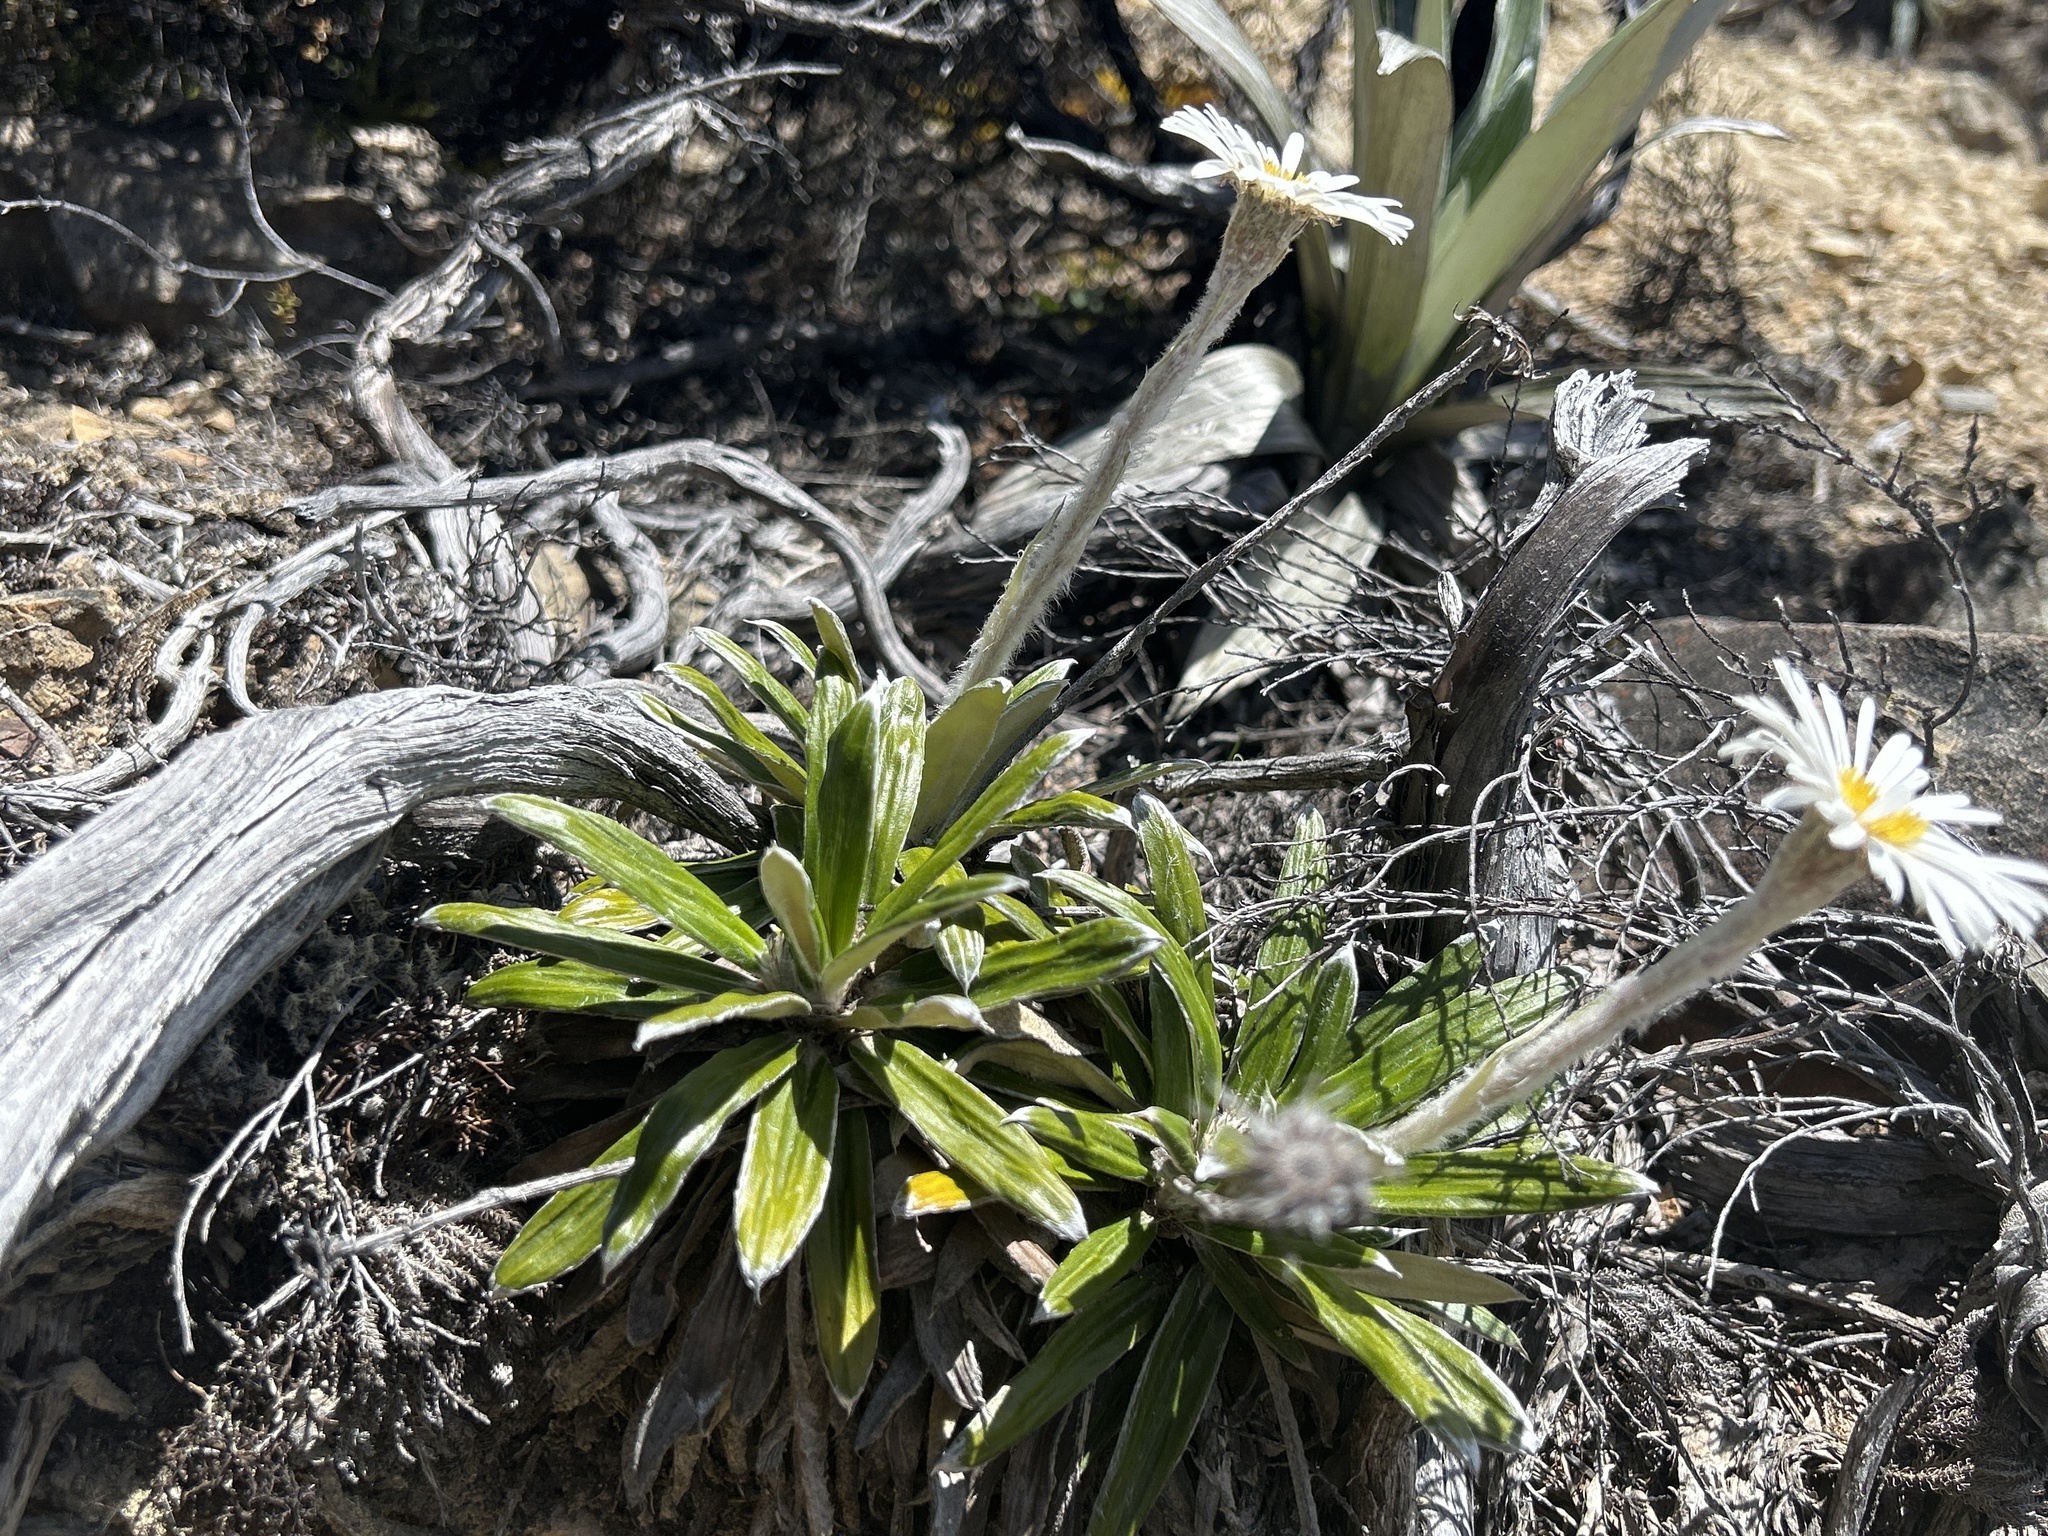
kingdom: Plantae
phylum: Tracheophyta
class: Magnoliopsida
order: Asterales
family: Asteraceae
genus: Celmisia
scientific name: Celmisia spectabilis
